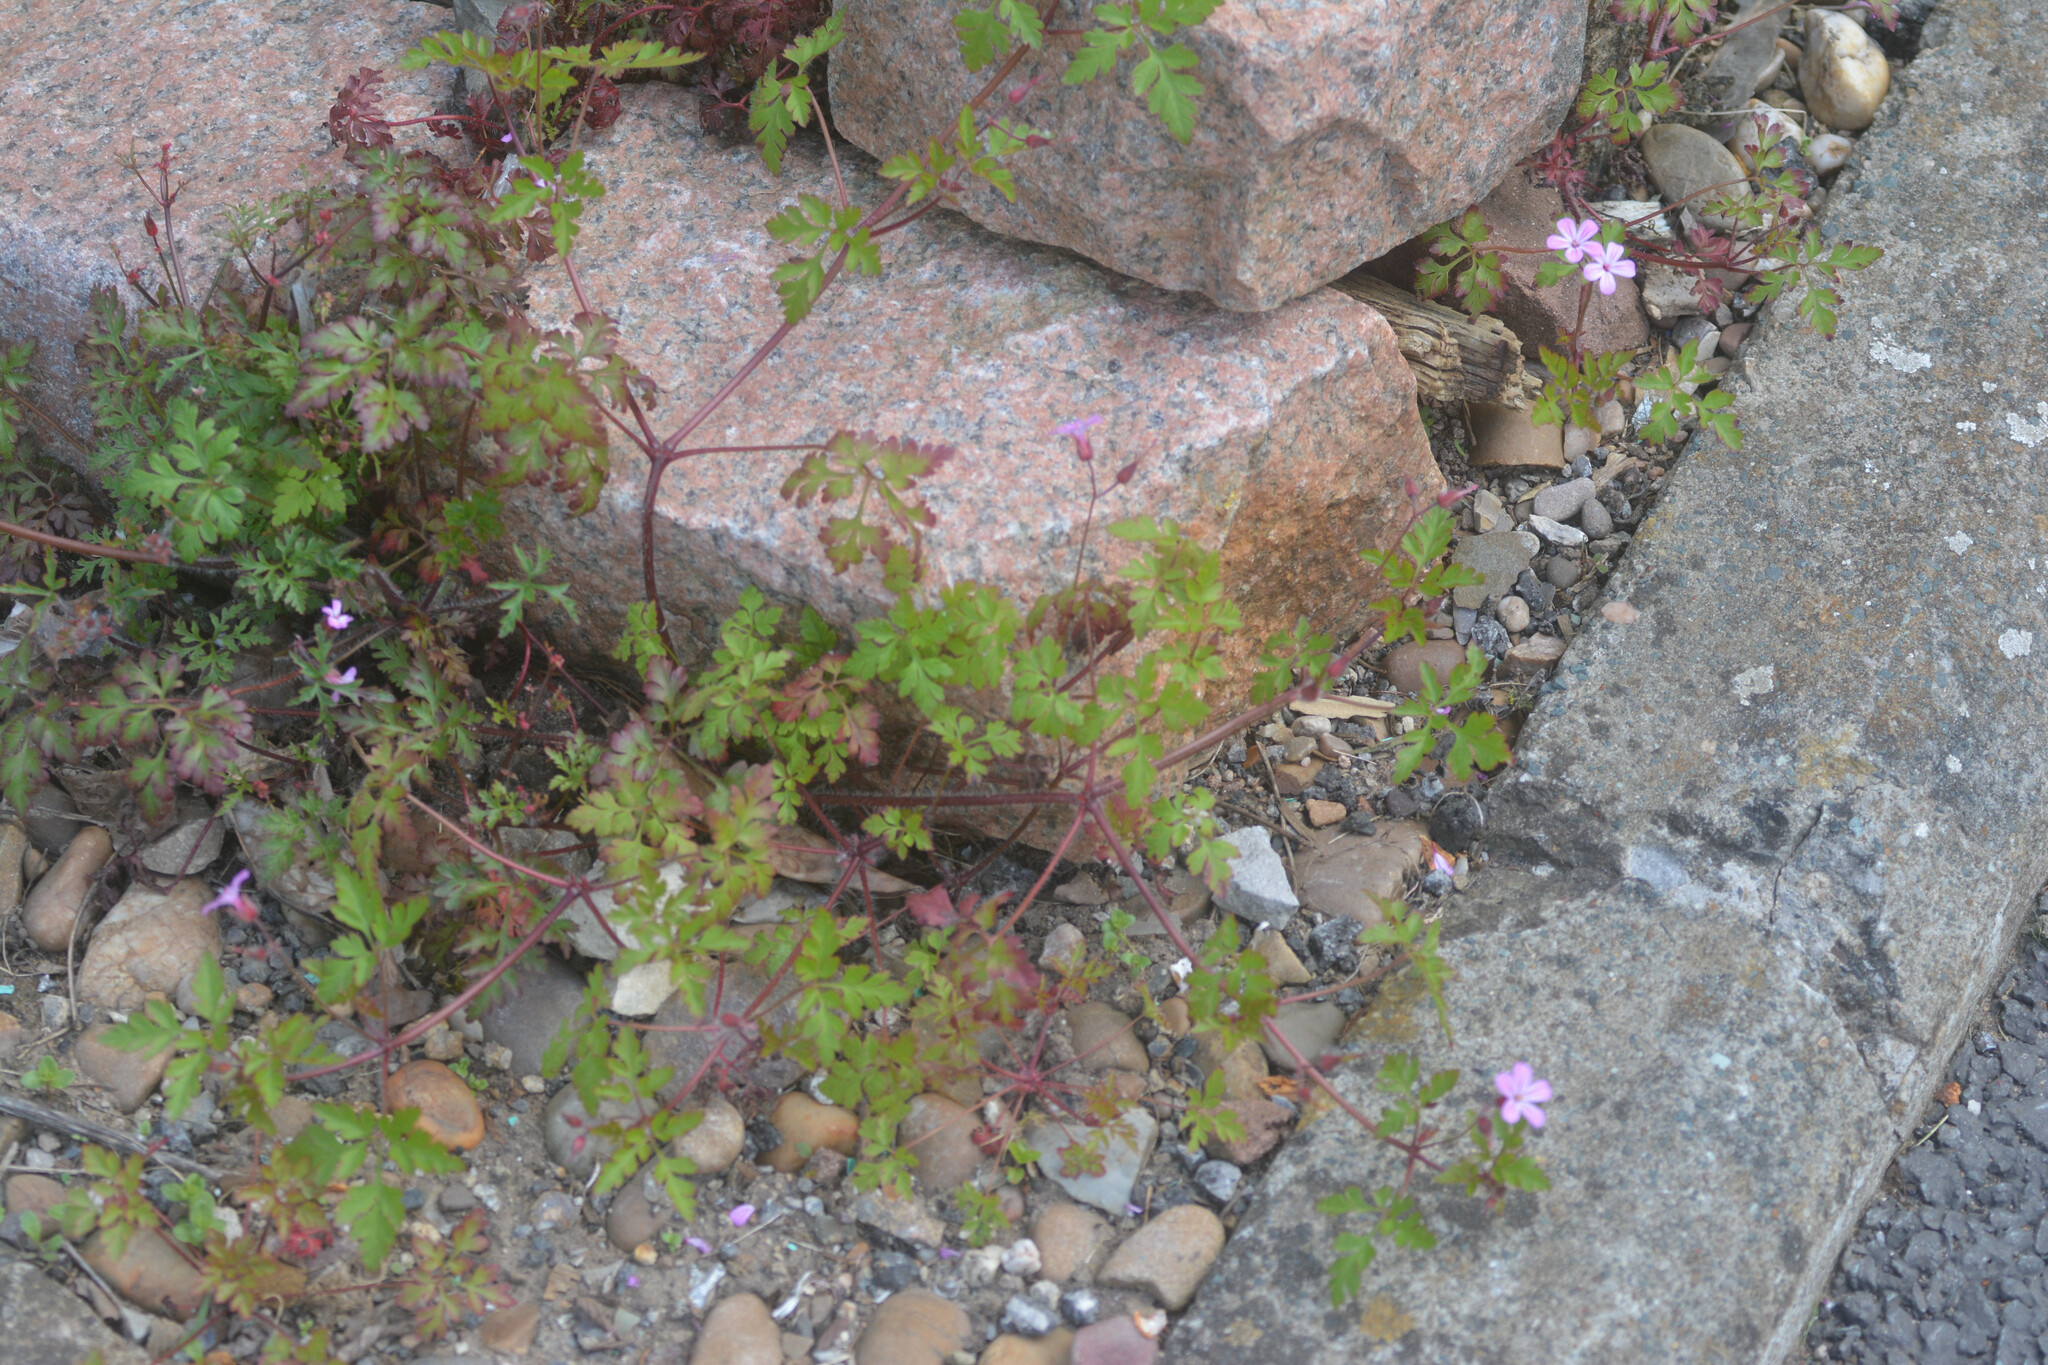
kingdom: Plantae
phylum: Tracheophyta
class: Magnoliopsida
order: Geraniales
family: Geraniaceae
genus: Geranium
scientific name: Geranium robertianum
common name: Herb-robert
